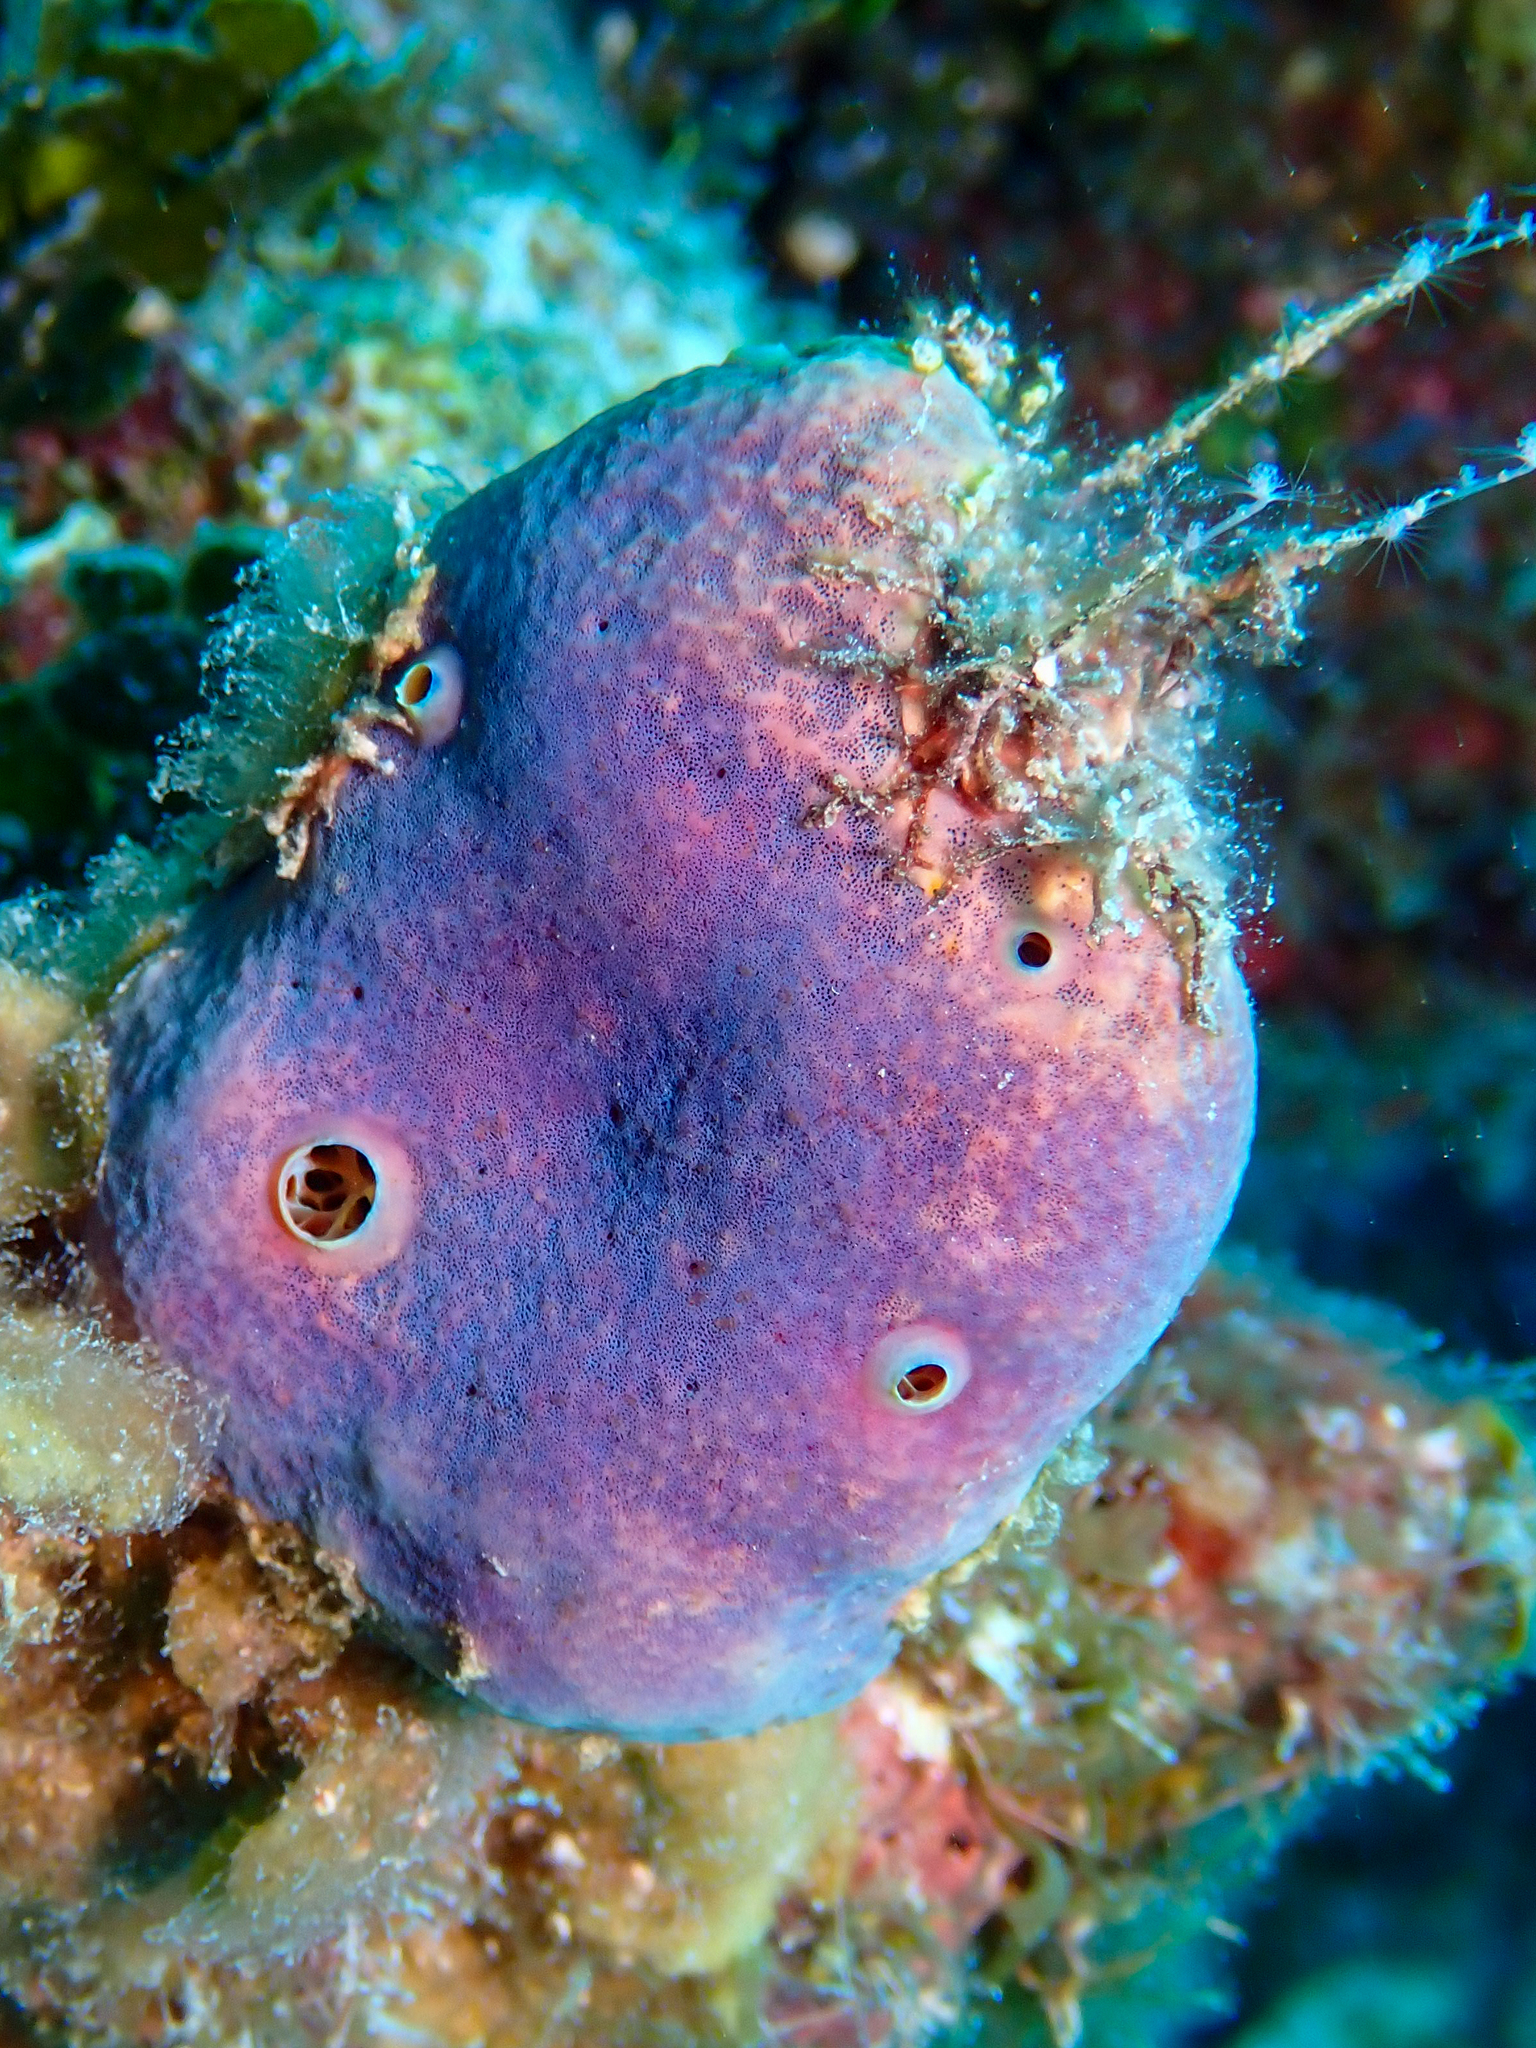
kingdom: Animalia
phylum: Porifera
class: Demospongiae
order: Verongiida
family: Aplysinidae
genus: Aplysina
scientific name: Aplysina cauliformis
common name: Branching candle sponge
